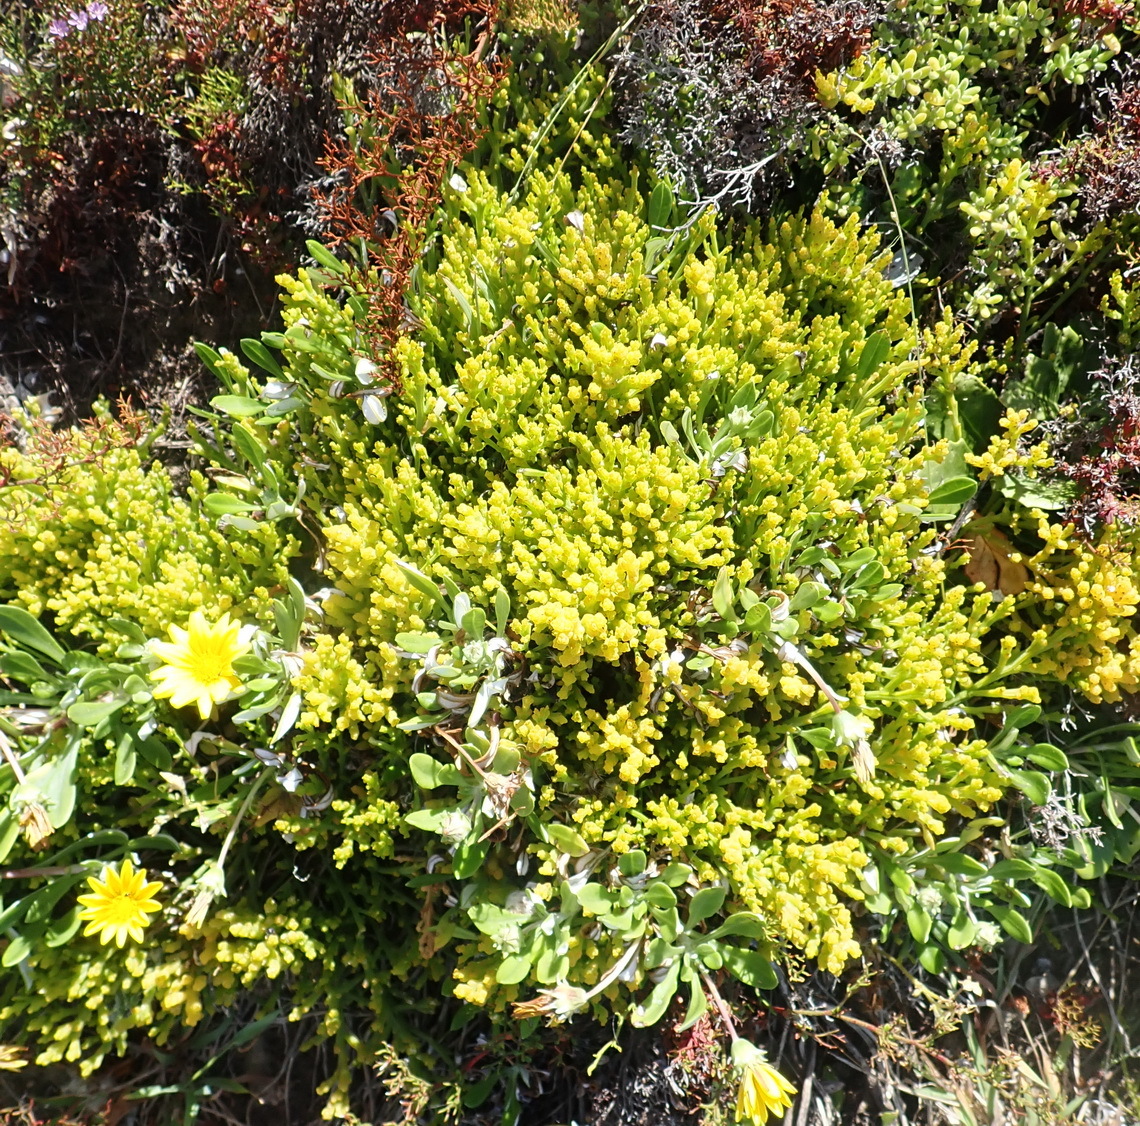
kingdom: Plantae
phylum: Tracheophyta
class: Magnoliopsida
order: Santalales
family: Thesiaceae
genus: Thesium
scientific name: Thesium fragile
